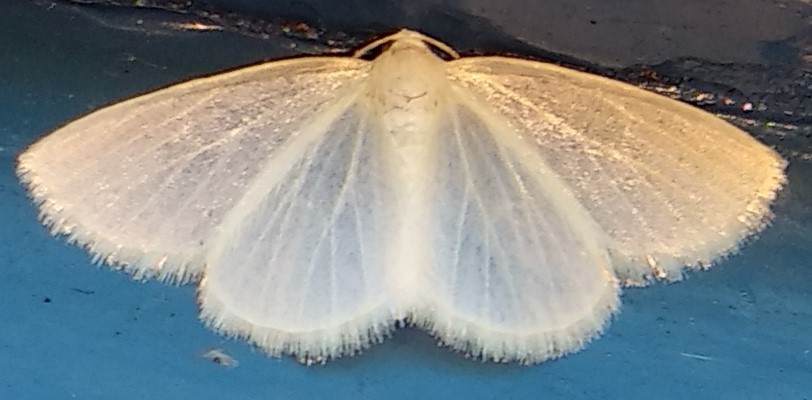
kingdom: Animalia
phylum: Arthropoda
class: Insecta
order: Lepidoptera
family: Geometridae
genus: Lomographa
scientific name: Lomographa vestaliata
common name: White spring moth
